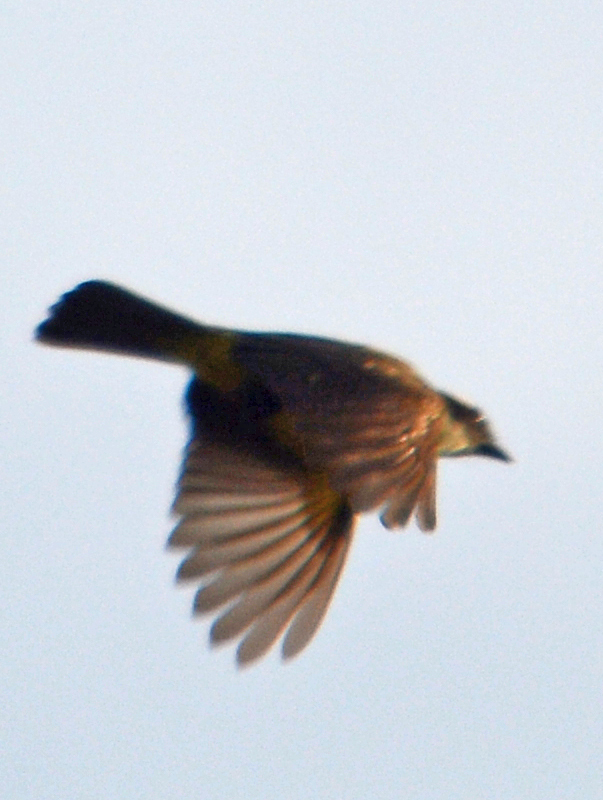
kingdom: Animalia
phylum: Chordata
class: Aves
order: Passeriformes
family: Tyrannidae
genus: Myiozetetes
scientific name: Myiozetetes similis
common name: Social flycatcher
